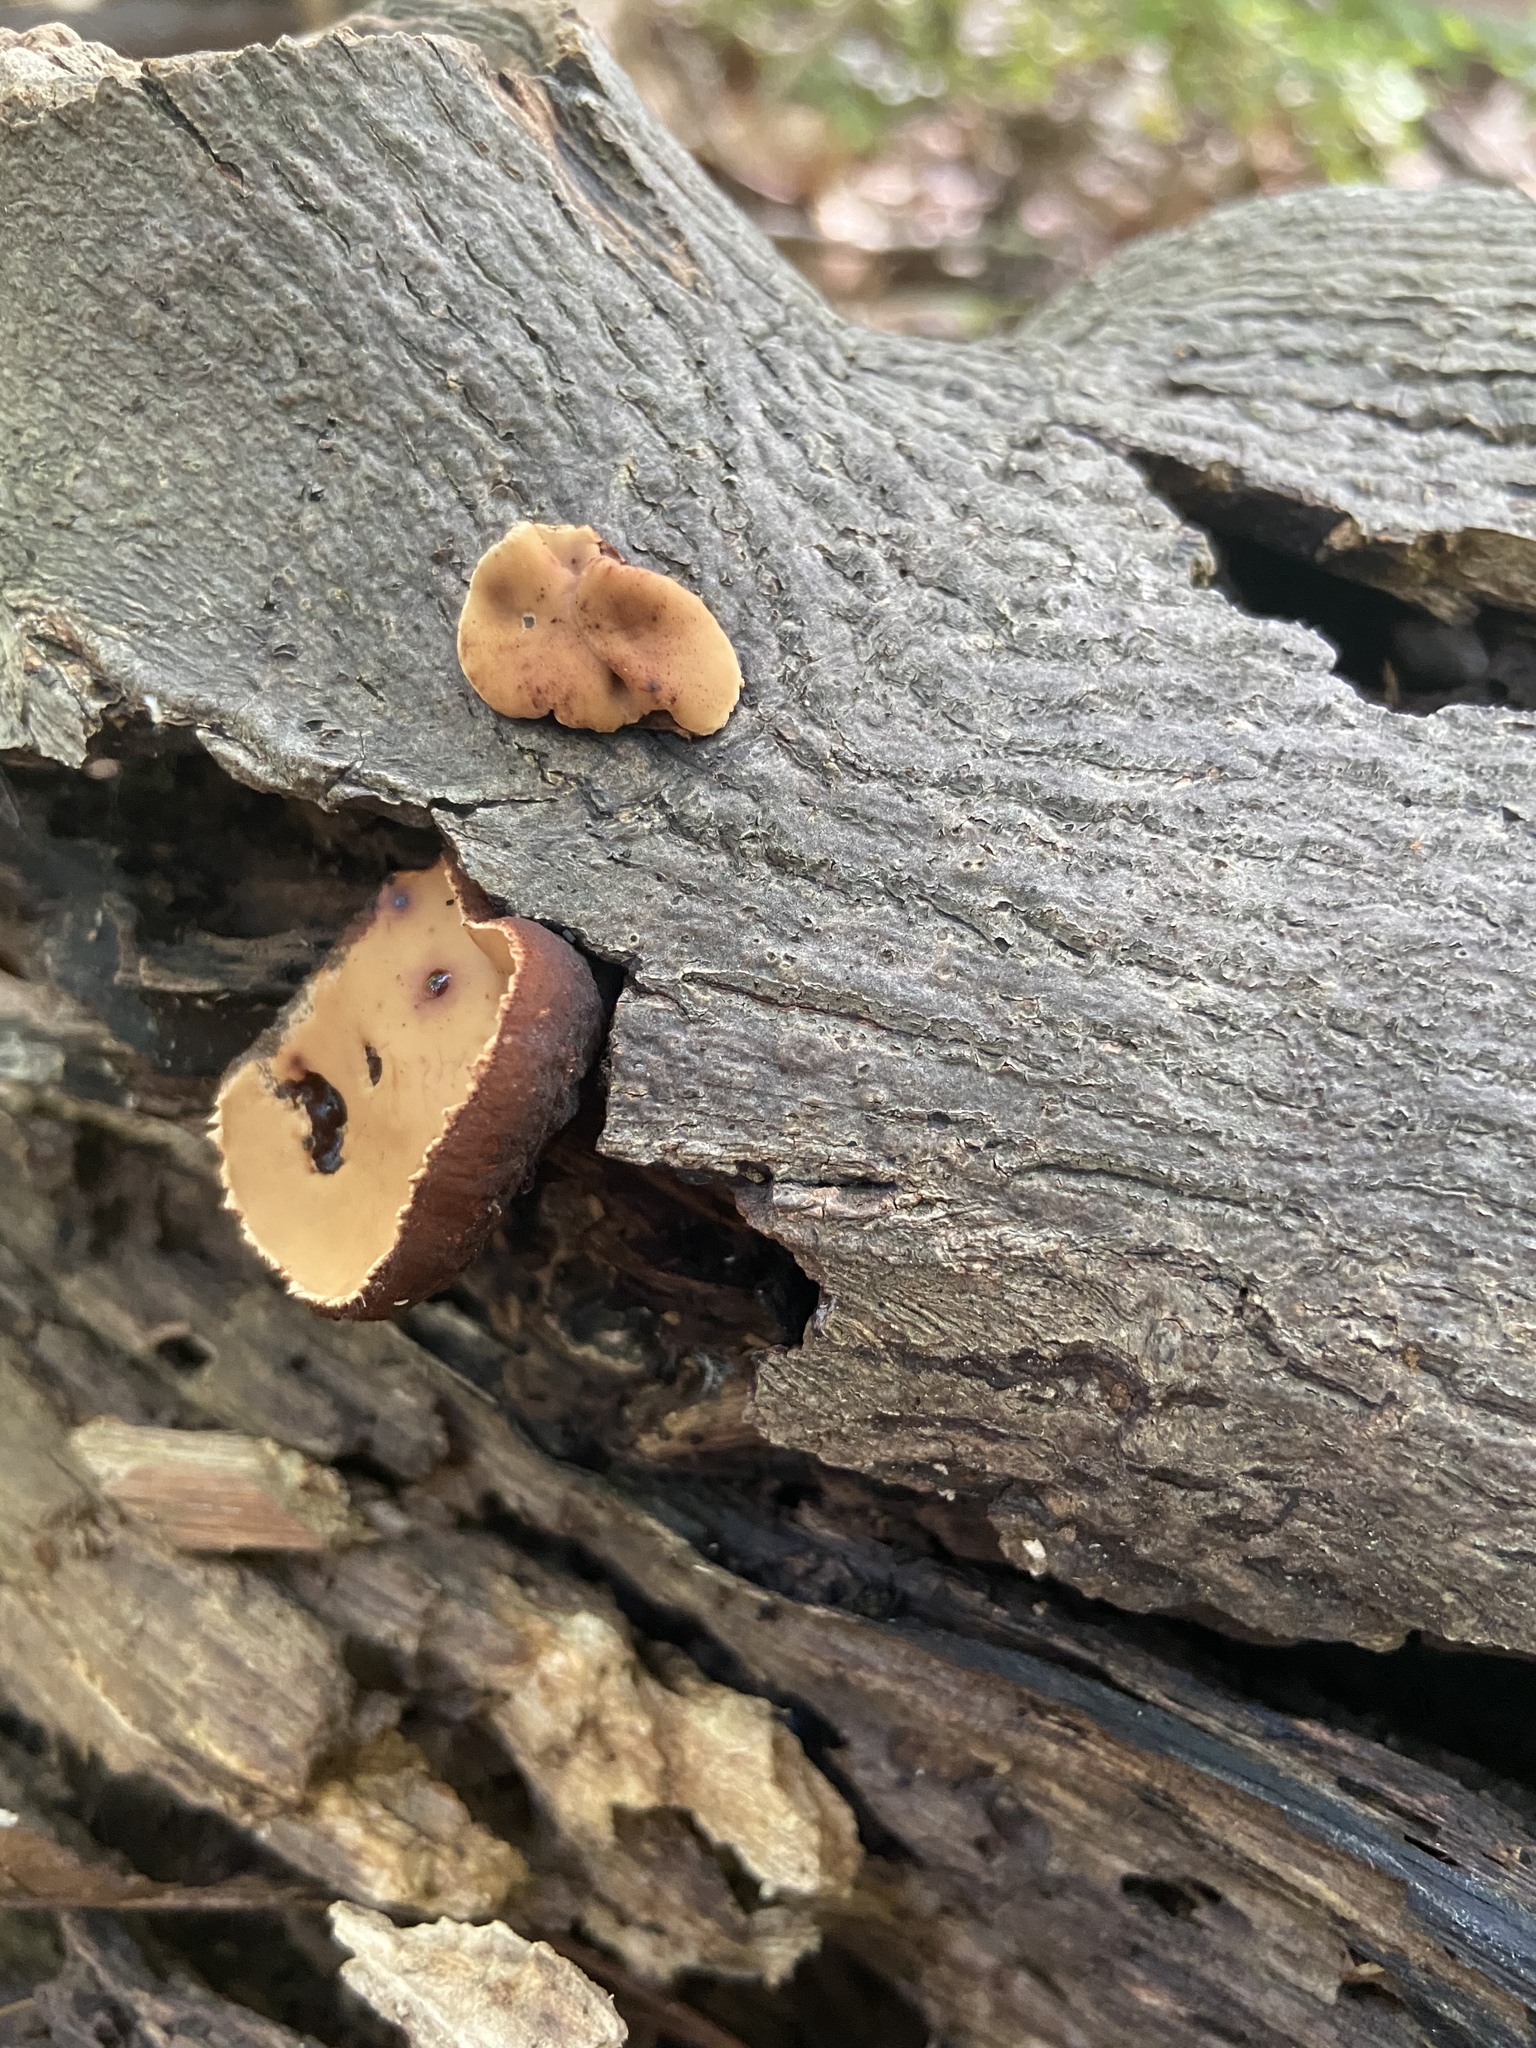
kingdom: Fungi
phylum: Ascomycota
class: Pezizomycetes
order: Pezizales
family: Sarcosomataceae
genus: Galiella
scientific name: Galiella rufa
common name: Hairy rubber cup
